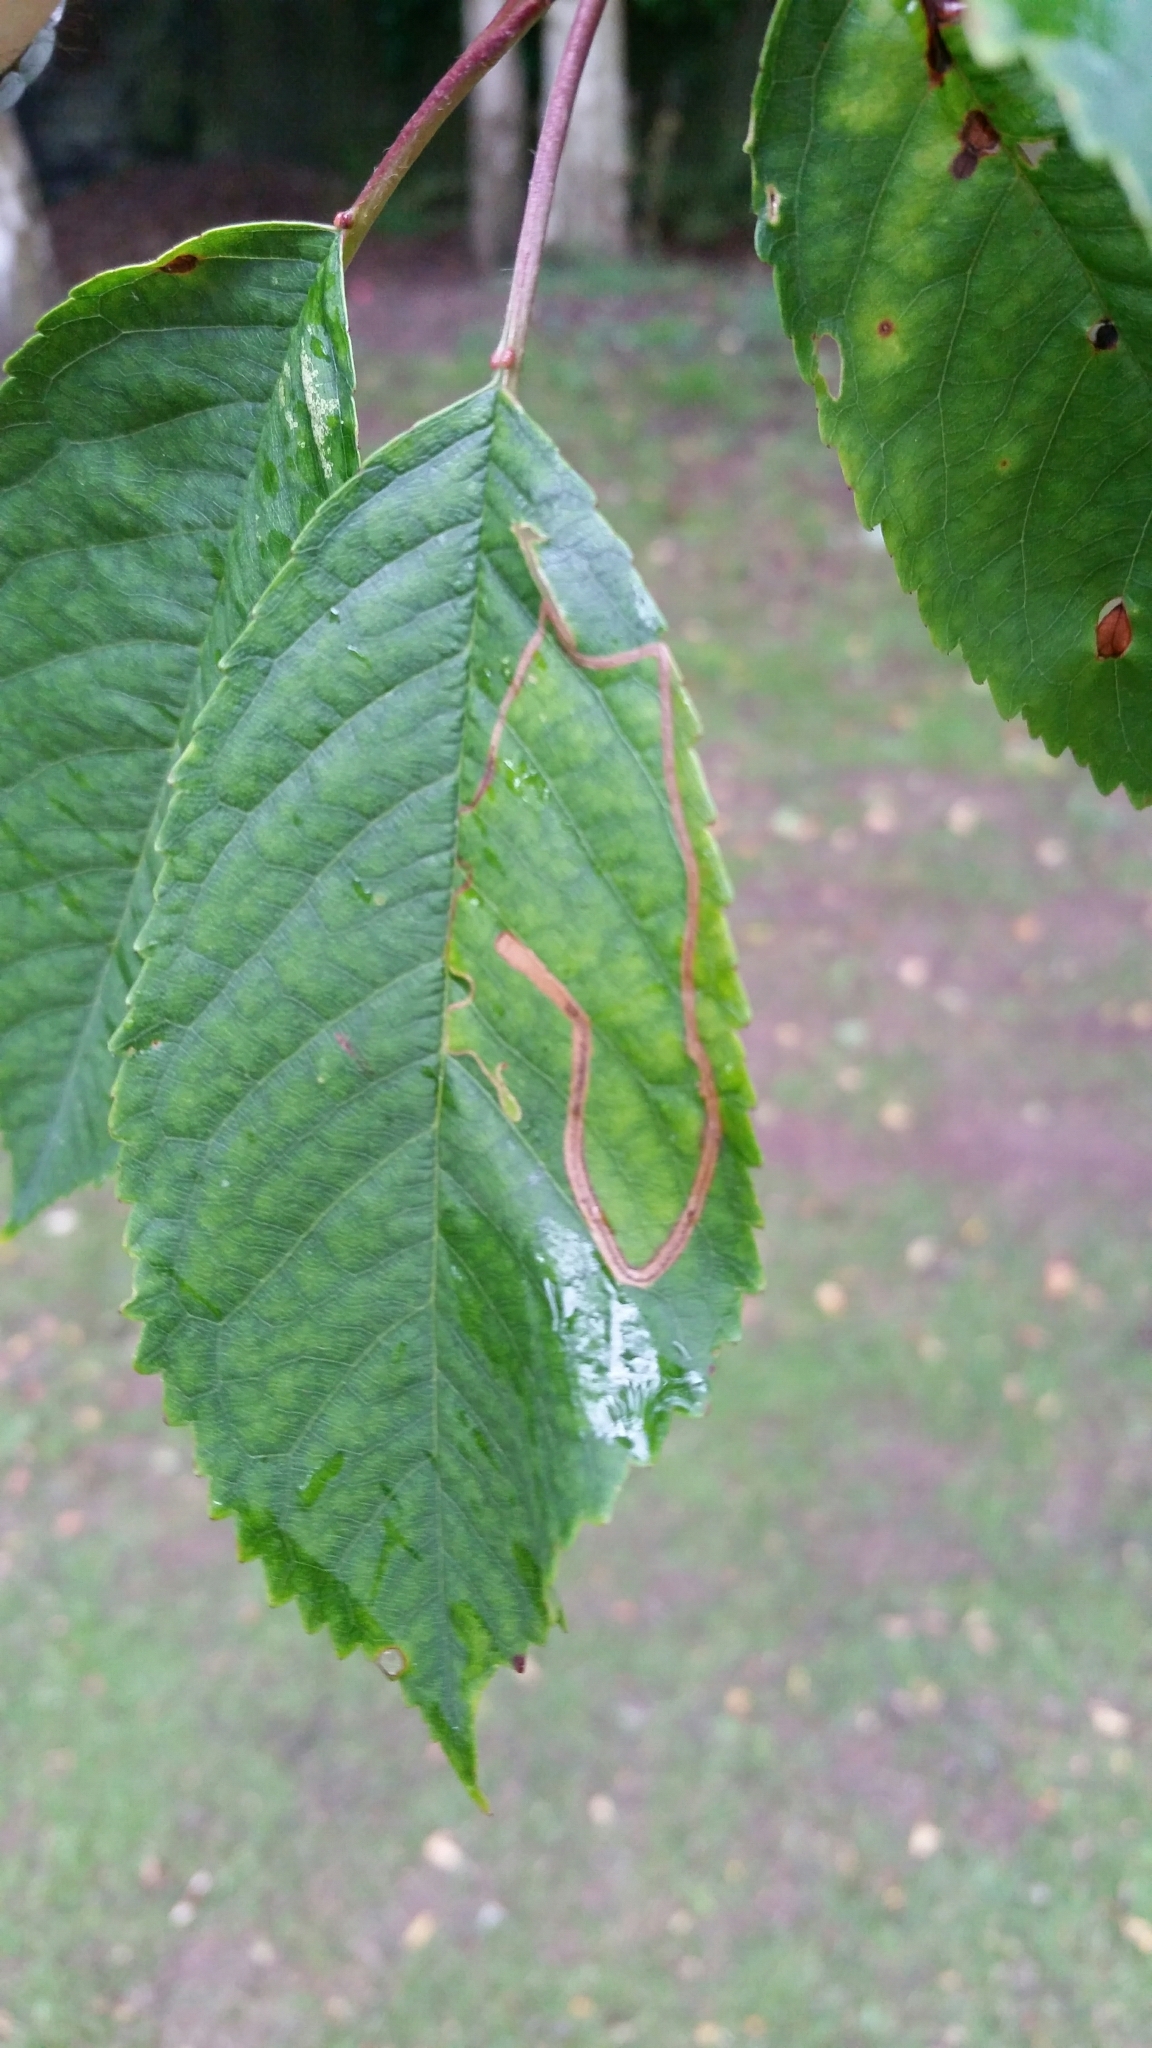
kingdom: Animalia
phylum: Arthropoda
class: Insecta
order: Lepidoptera
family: Lyonetiidae
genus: Lyonetia
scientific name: Lyonetia clerkella
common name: Apple leaf miner
